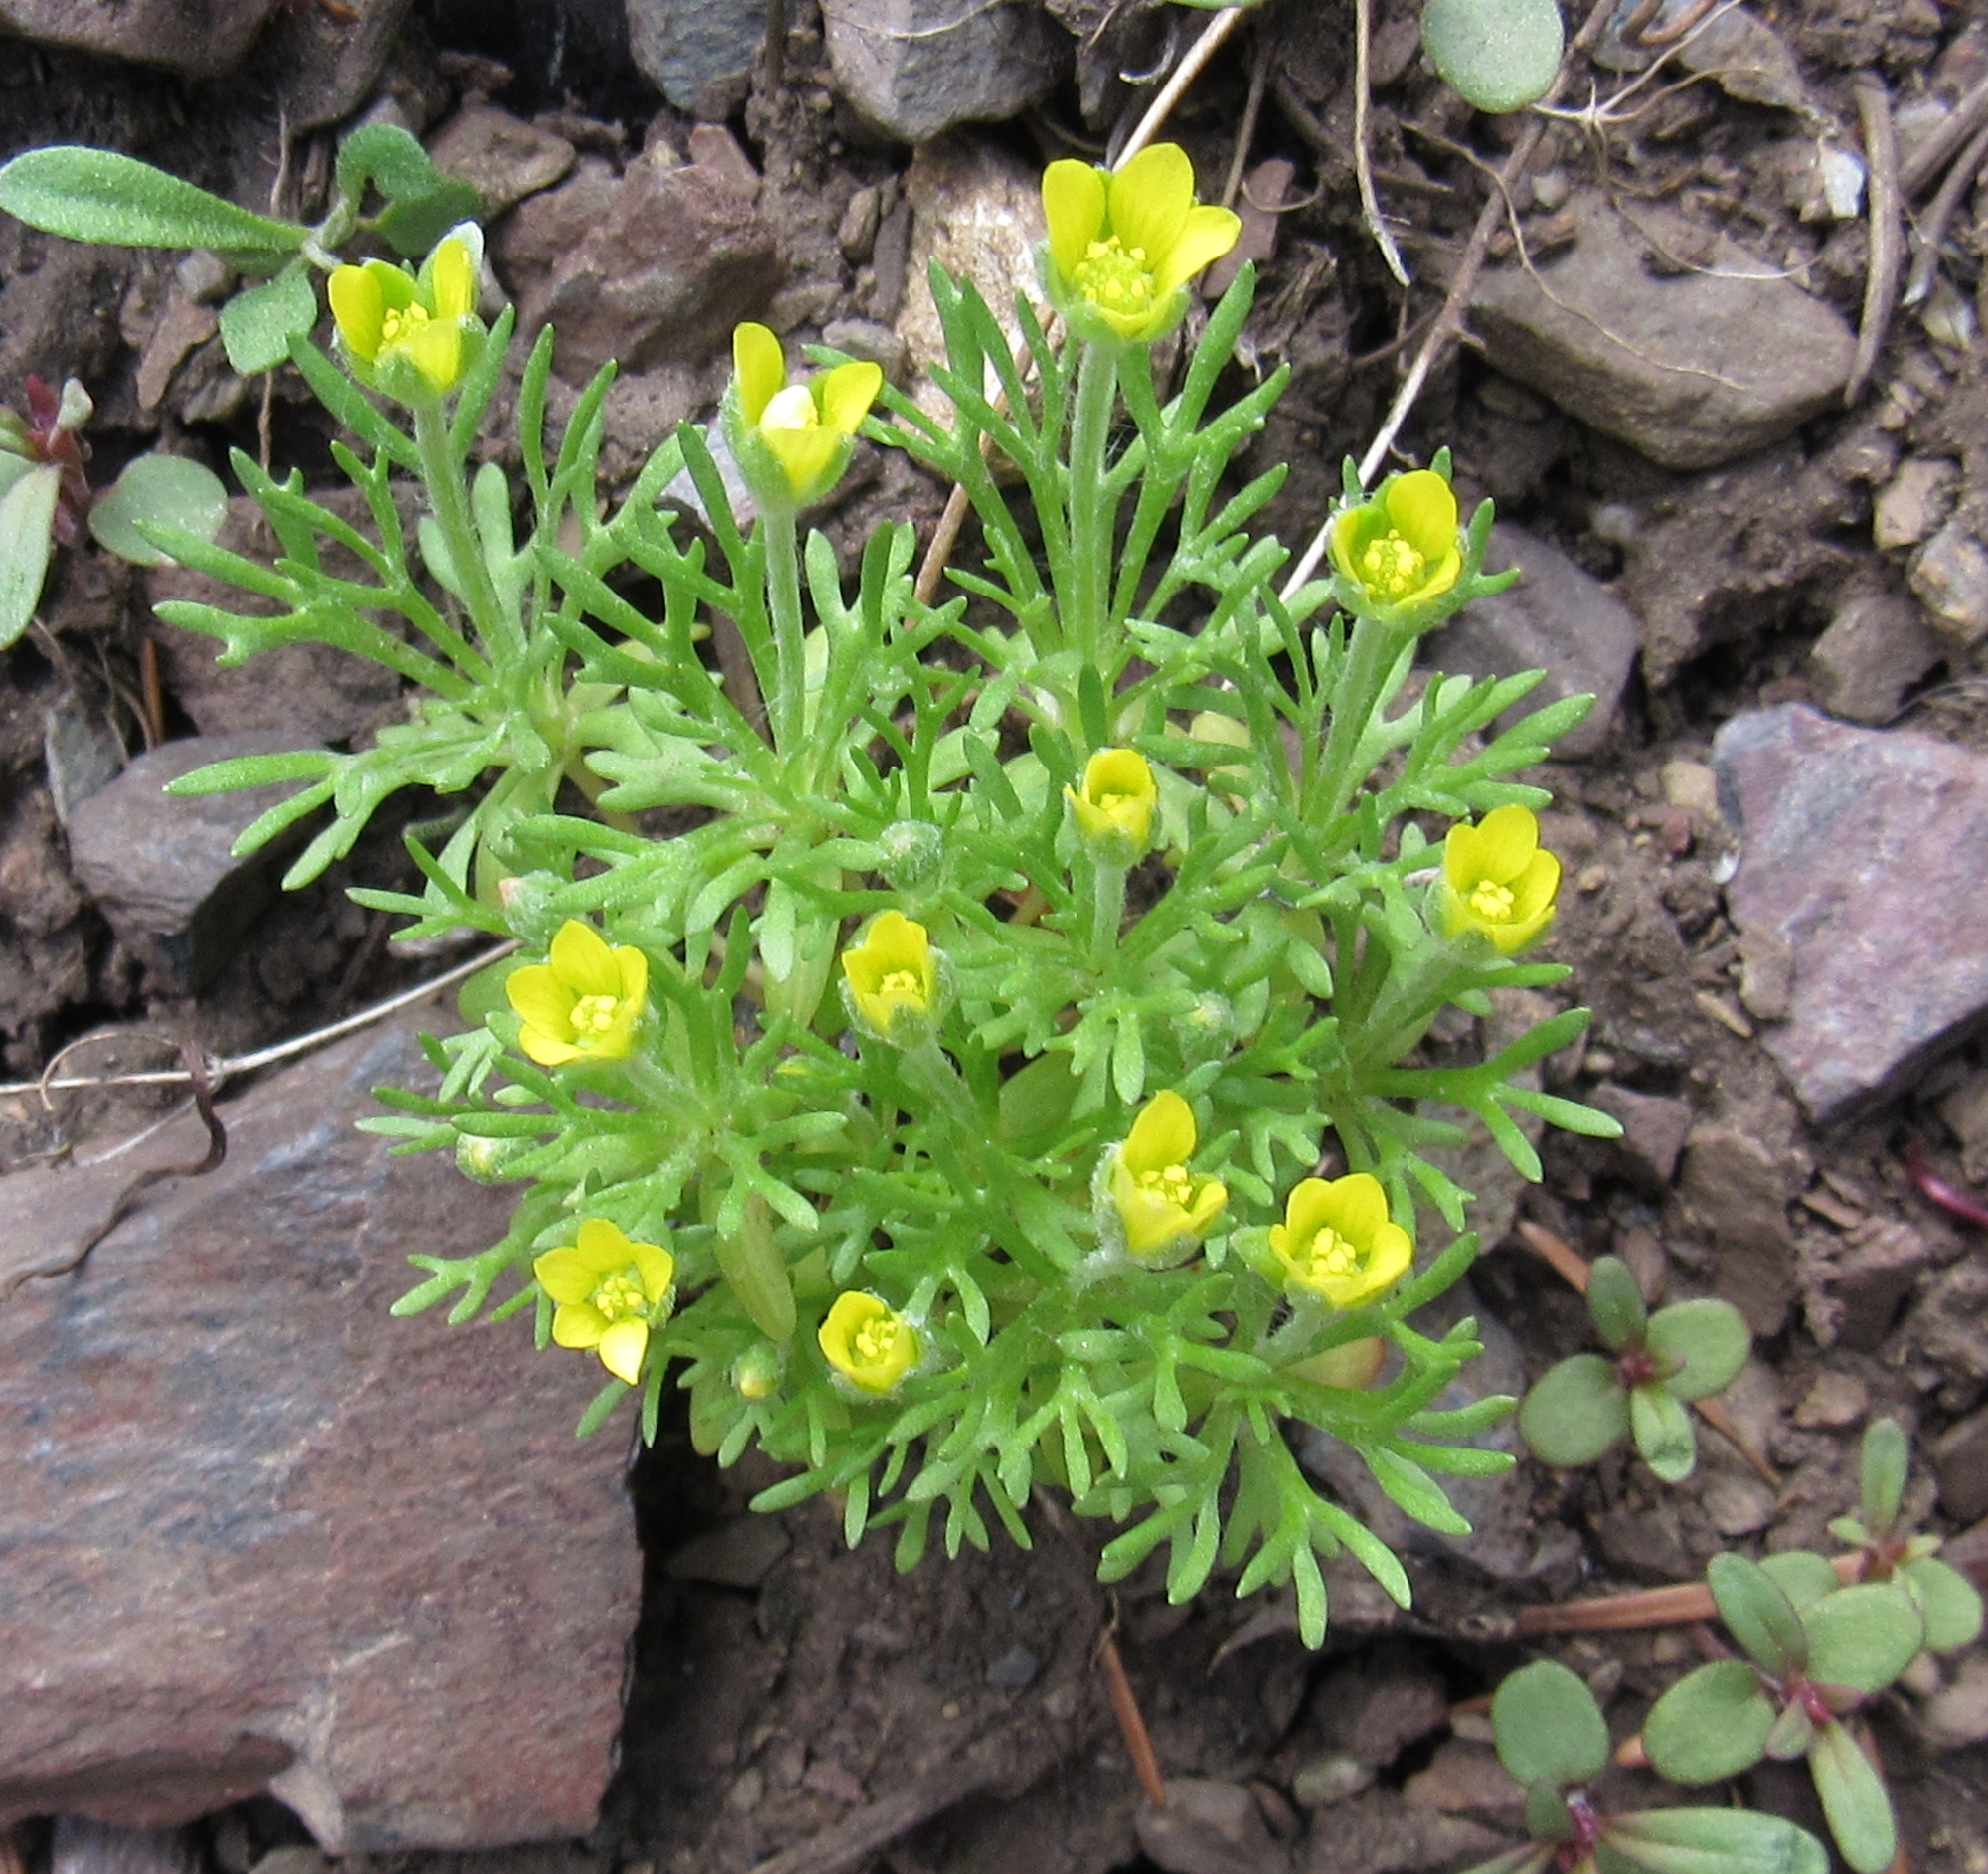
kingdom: Plantae
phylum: Tracheophyta
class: Magnoliopsida
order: Ranunculales
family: Ranunculaceae
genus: Ceratocephala
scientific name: Ceratocephala orthoceras
